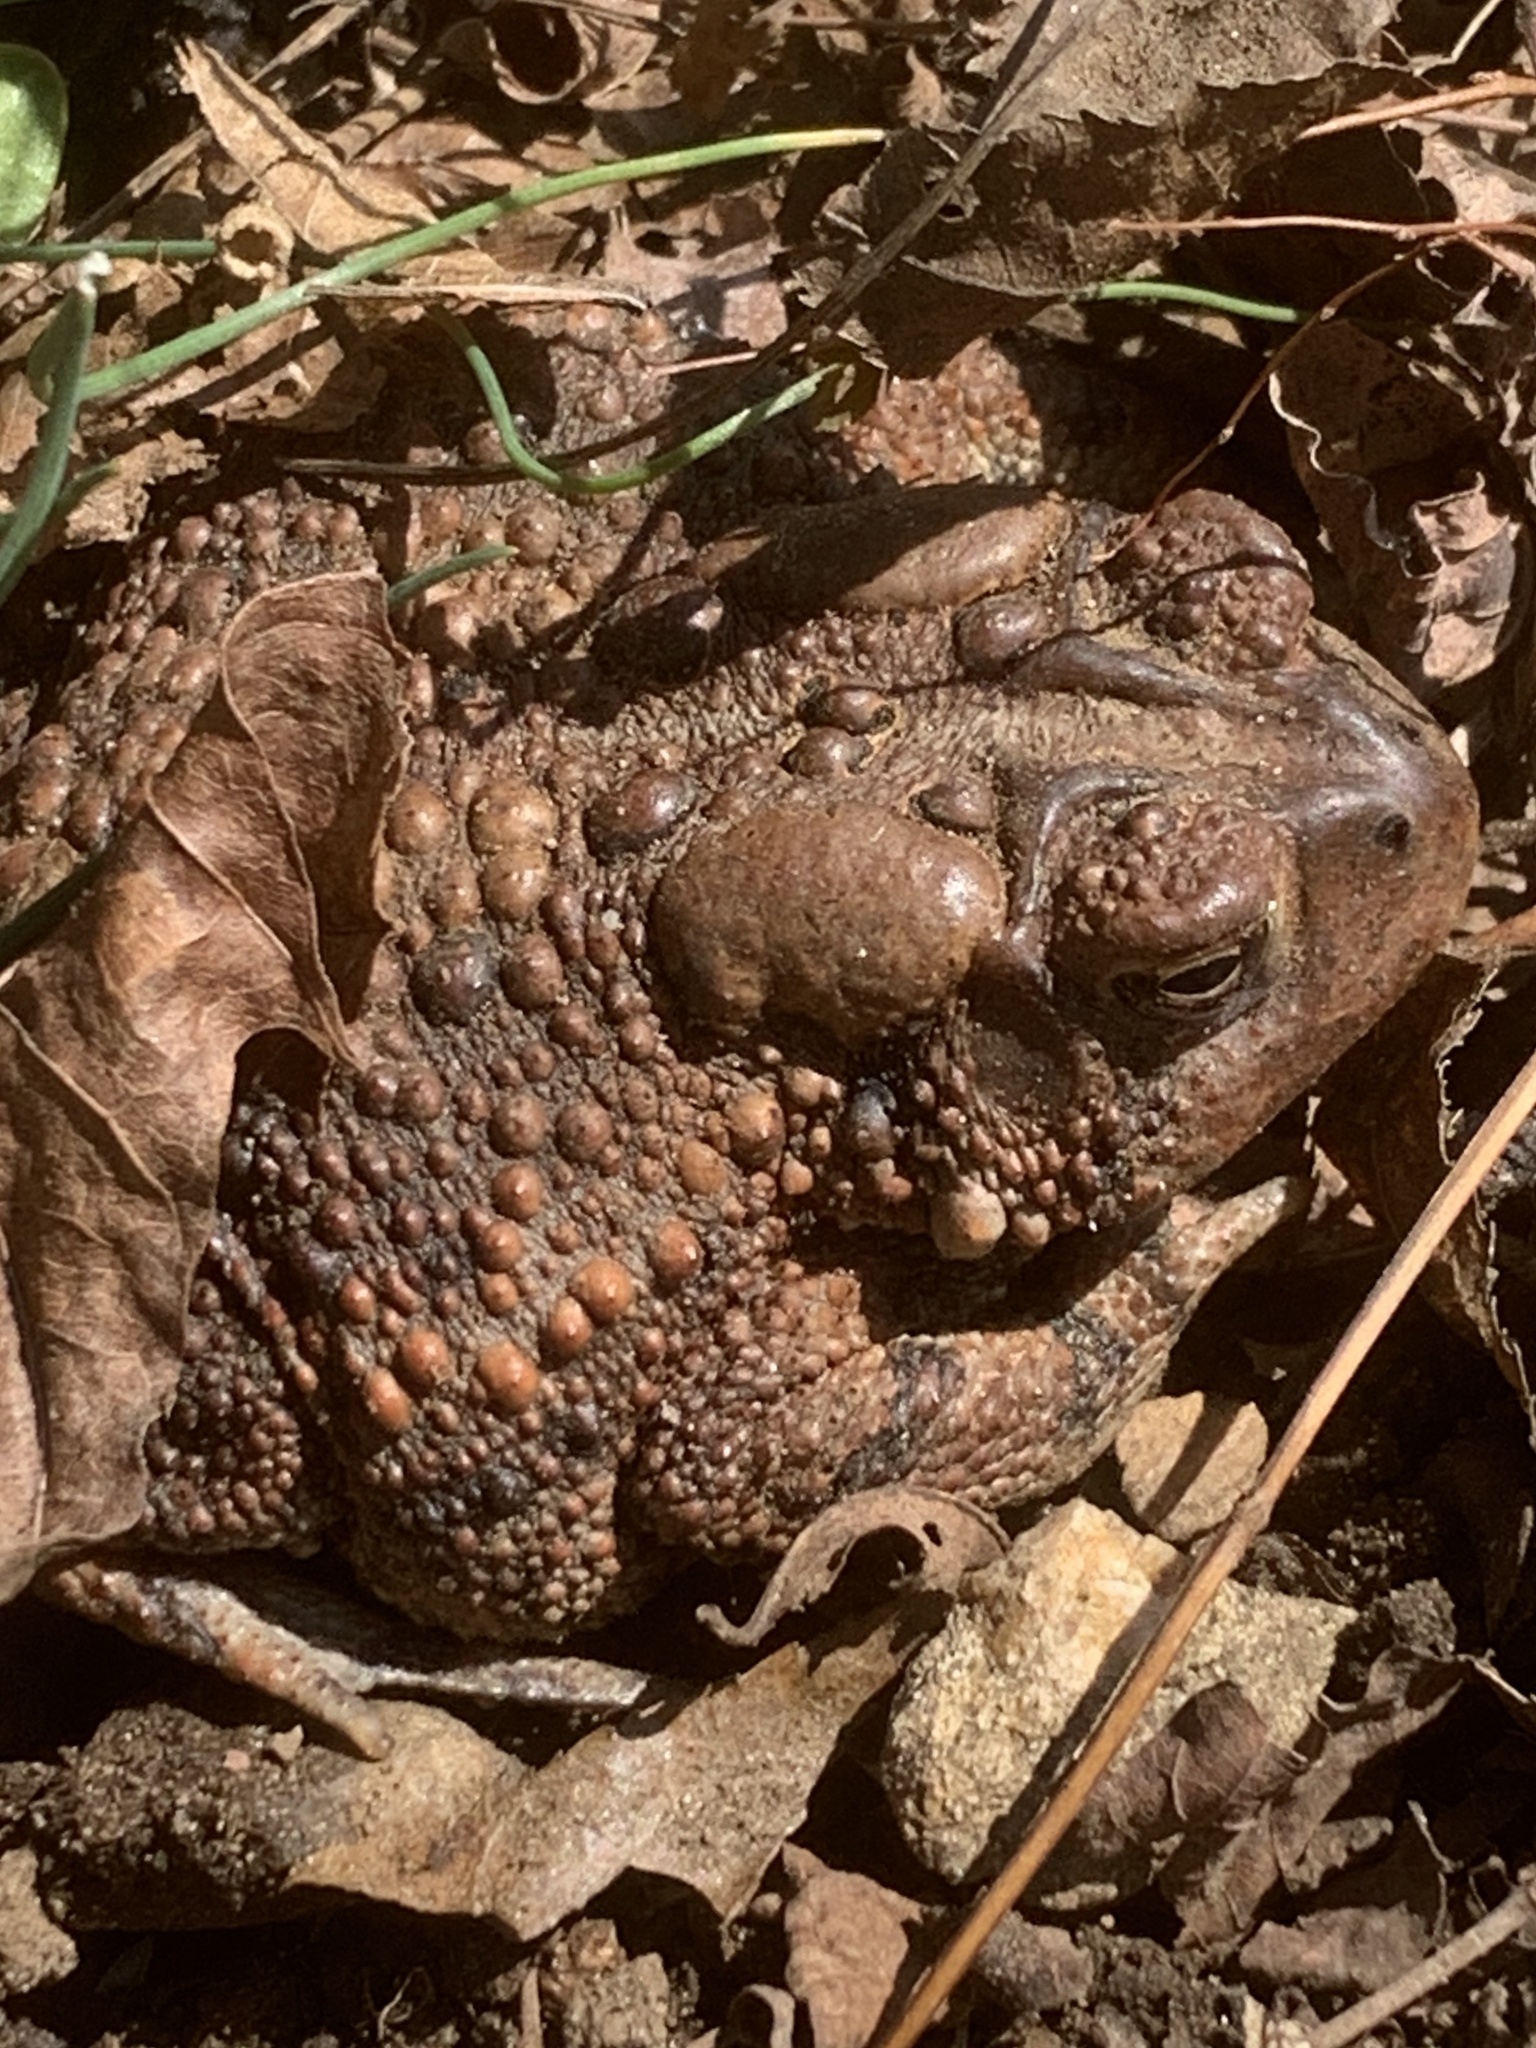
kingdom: Animalia
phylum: Chordata
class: Amphibia
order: Anura
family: Bufonidae
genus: Anaxyrus
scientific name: Anaxyrus americanus
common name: American toad
